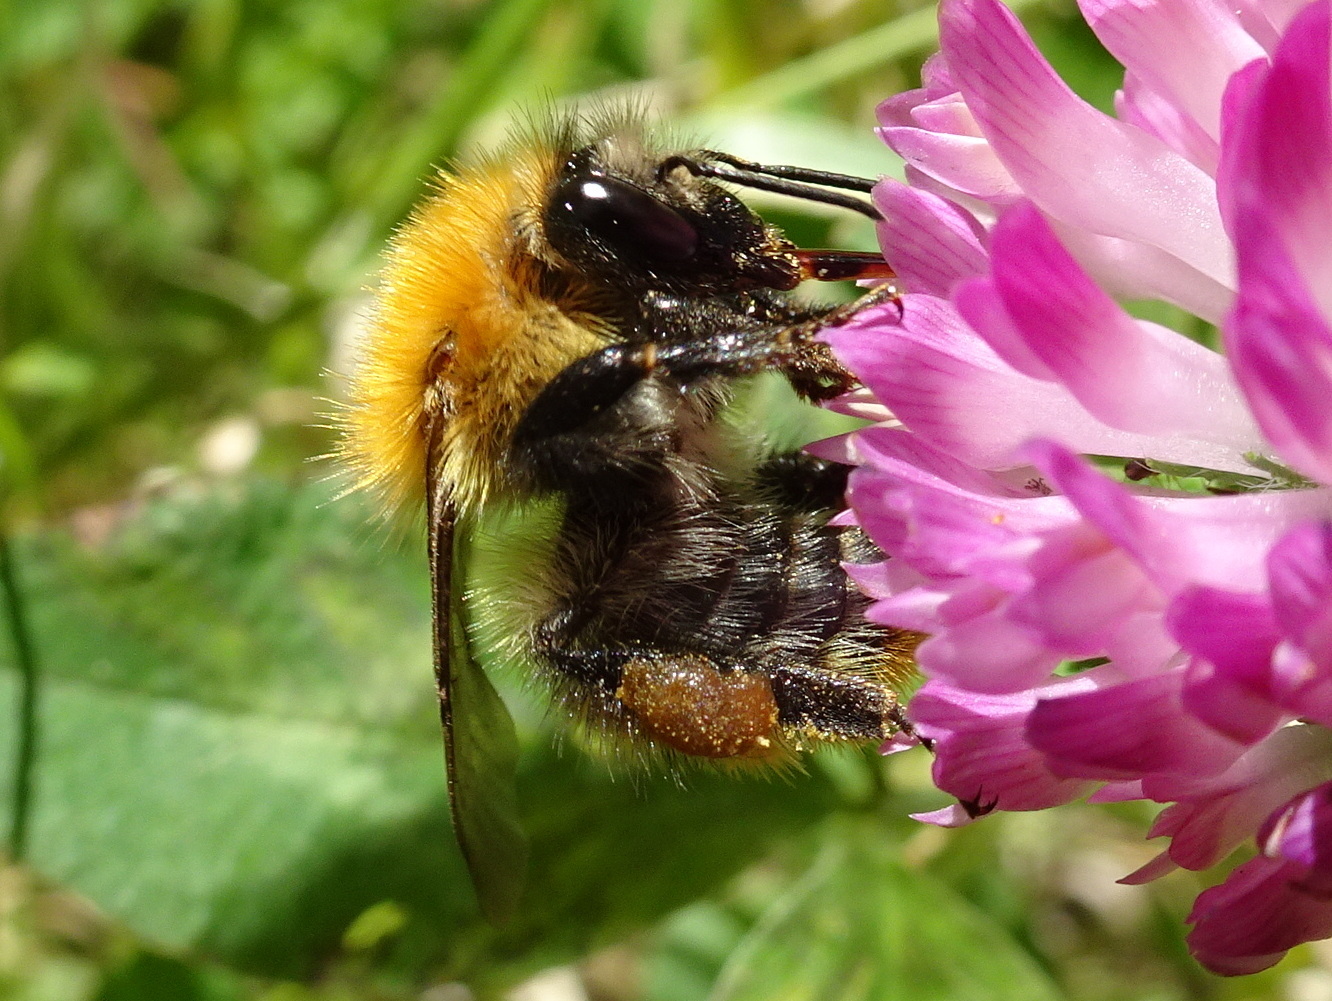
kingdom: Animalia
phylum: Arthropoda
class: Insecta
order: Hymenoptera
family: Apidae
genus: Bombus
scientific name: Bombus pascuorum
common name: Common carder bee
